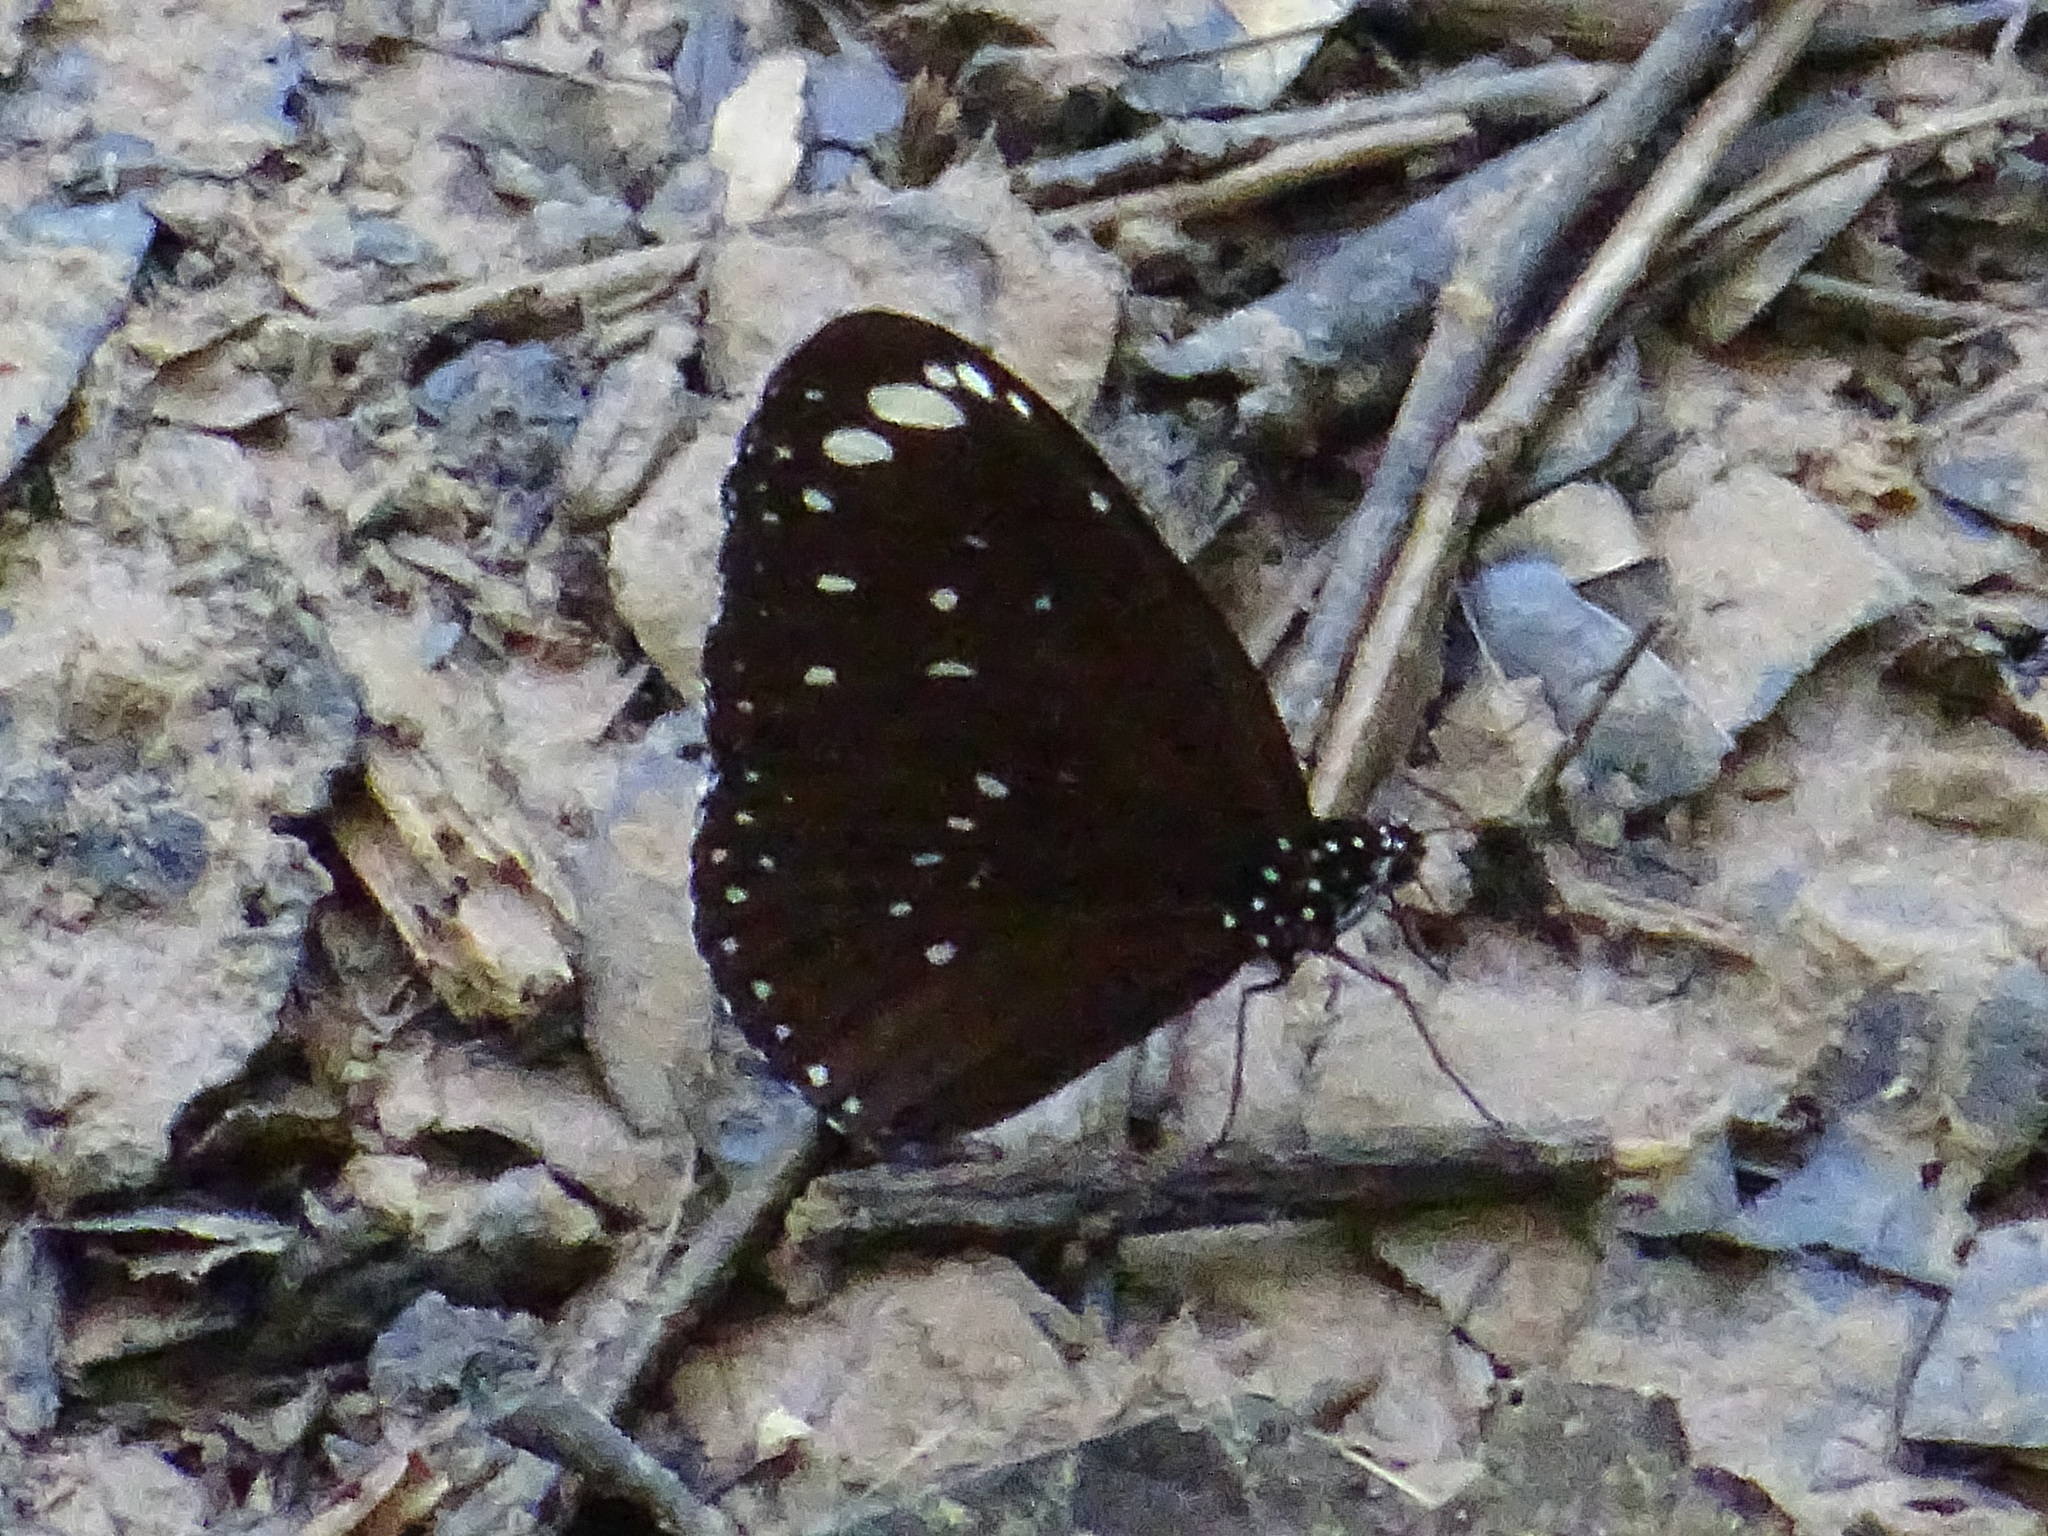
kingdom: Animalia
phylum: Arthropoda
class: Insecta
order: Lepidoptera
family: Nymphalidae
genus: Euploea
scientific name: Euploea crameri
